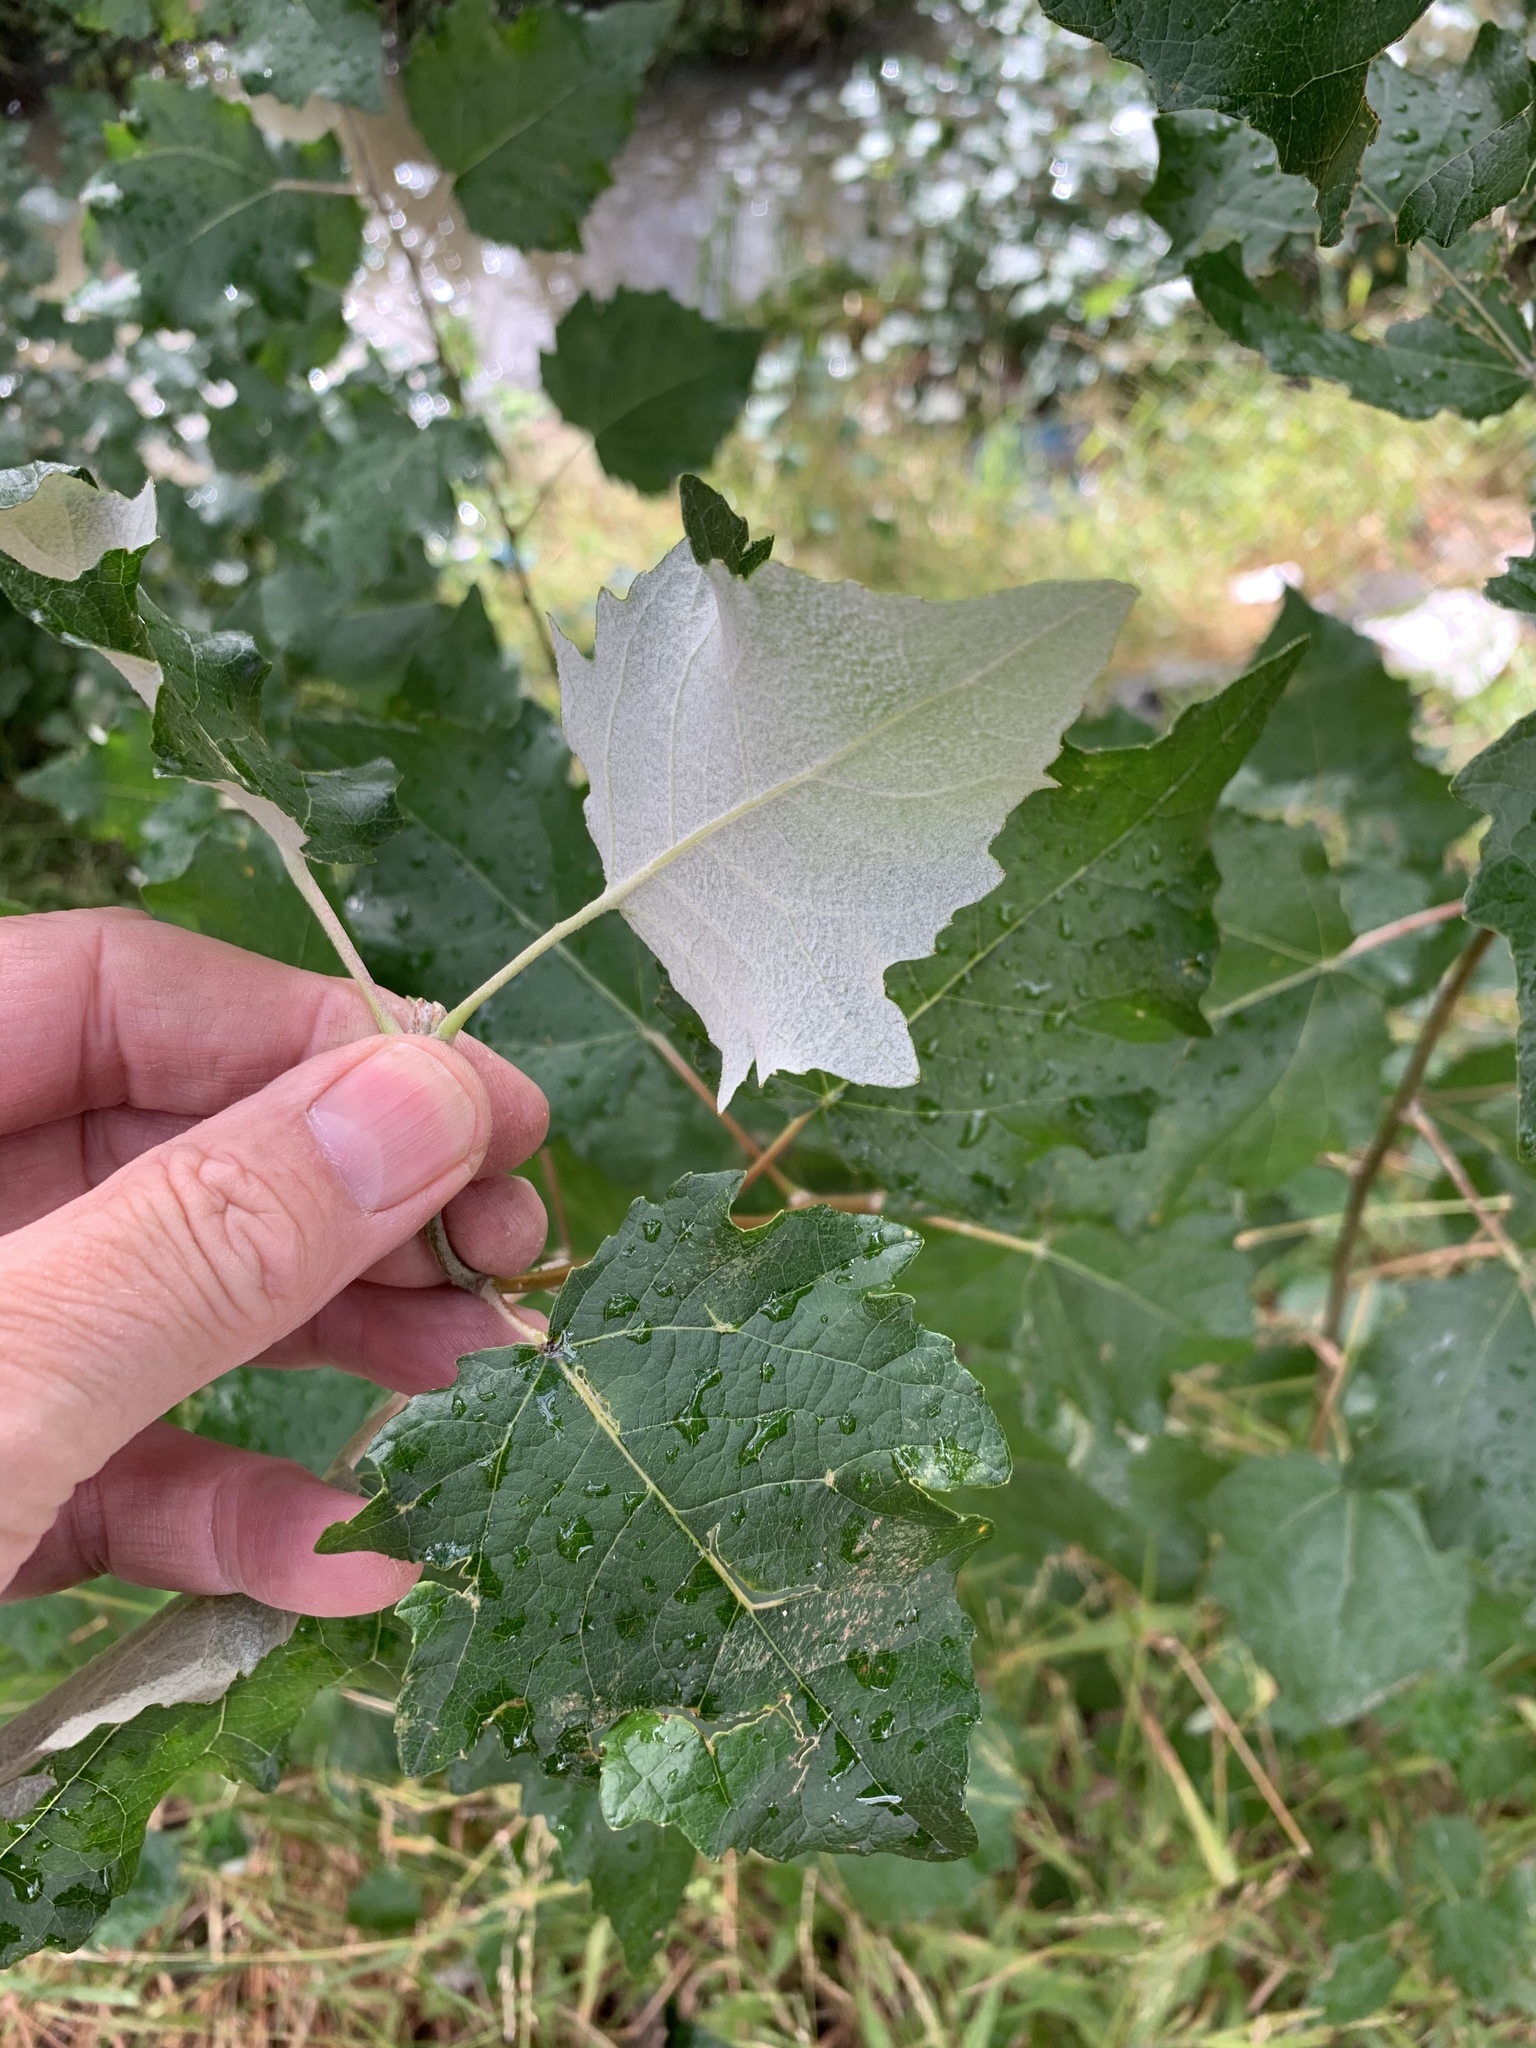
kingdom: Plantae
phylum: Tracheophyta
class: Magnoliopsida
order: Malpighiales
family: Salicaceae
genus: Populus
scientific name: Populus canescens
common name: Gray poplar
